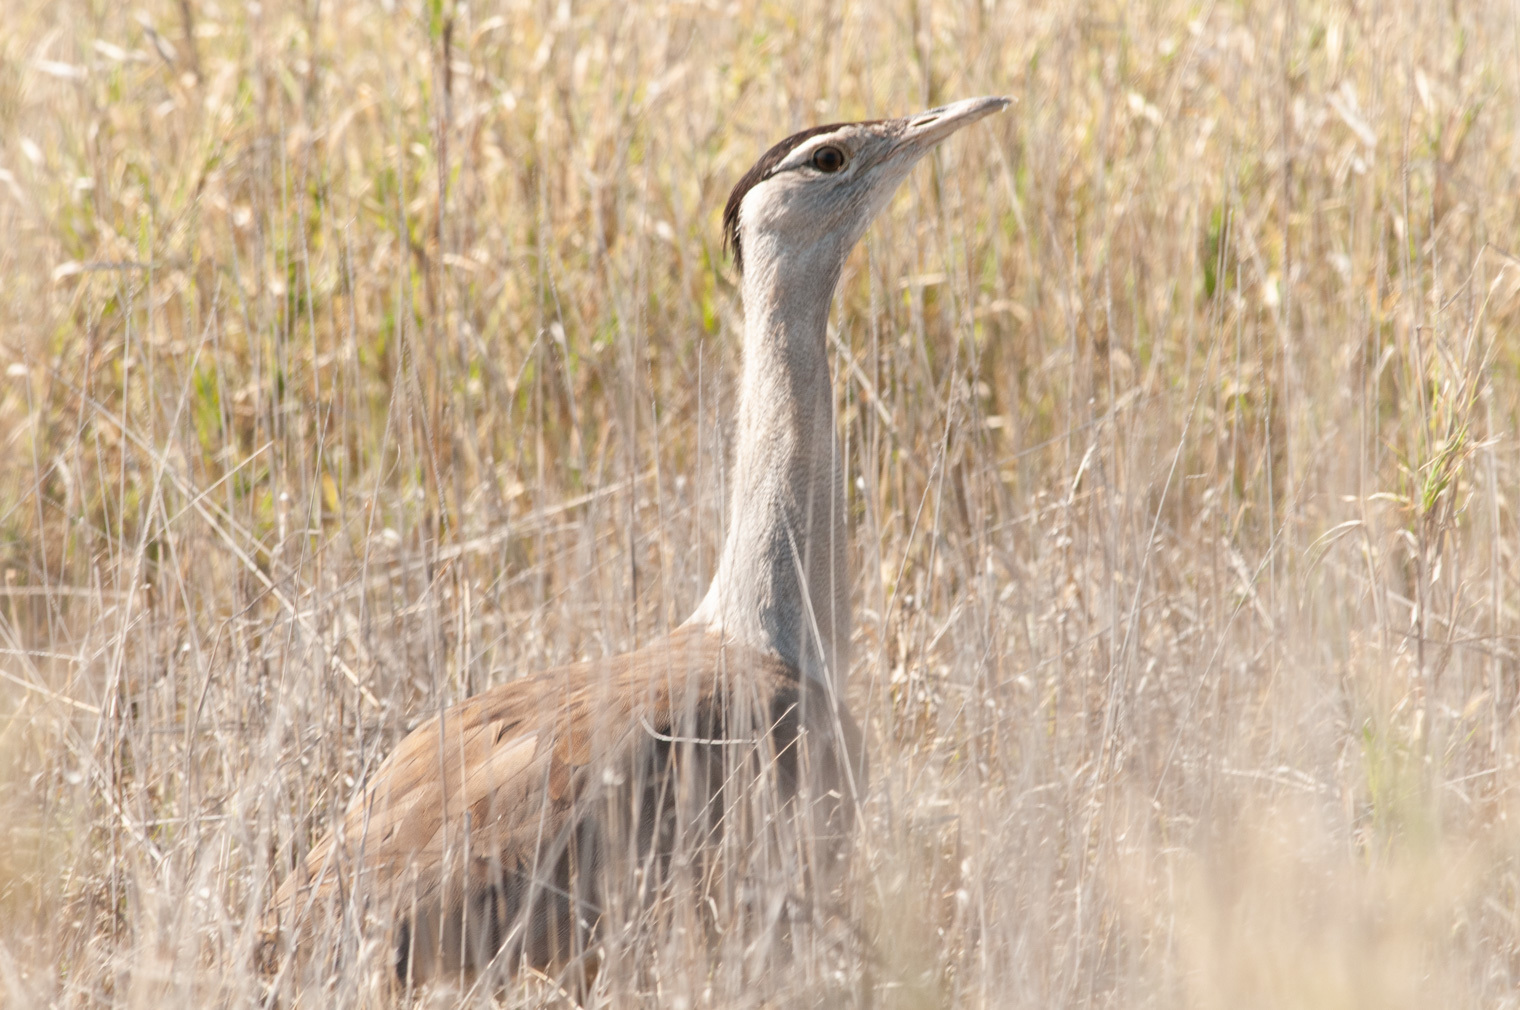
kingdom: Animalia
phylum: Chordata
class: Aves
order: Otidiformes
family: Otididae
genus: Ardeotis
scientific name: Ardeotis australis
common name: Australian bustard
